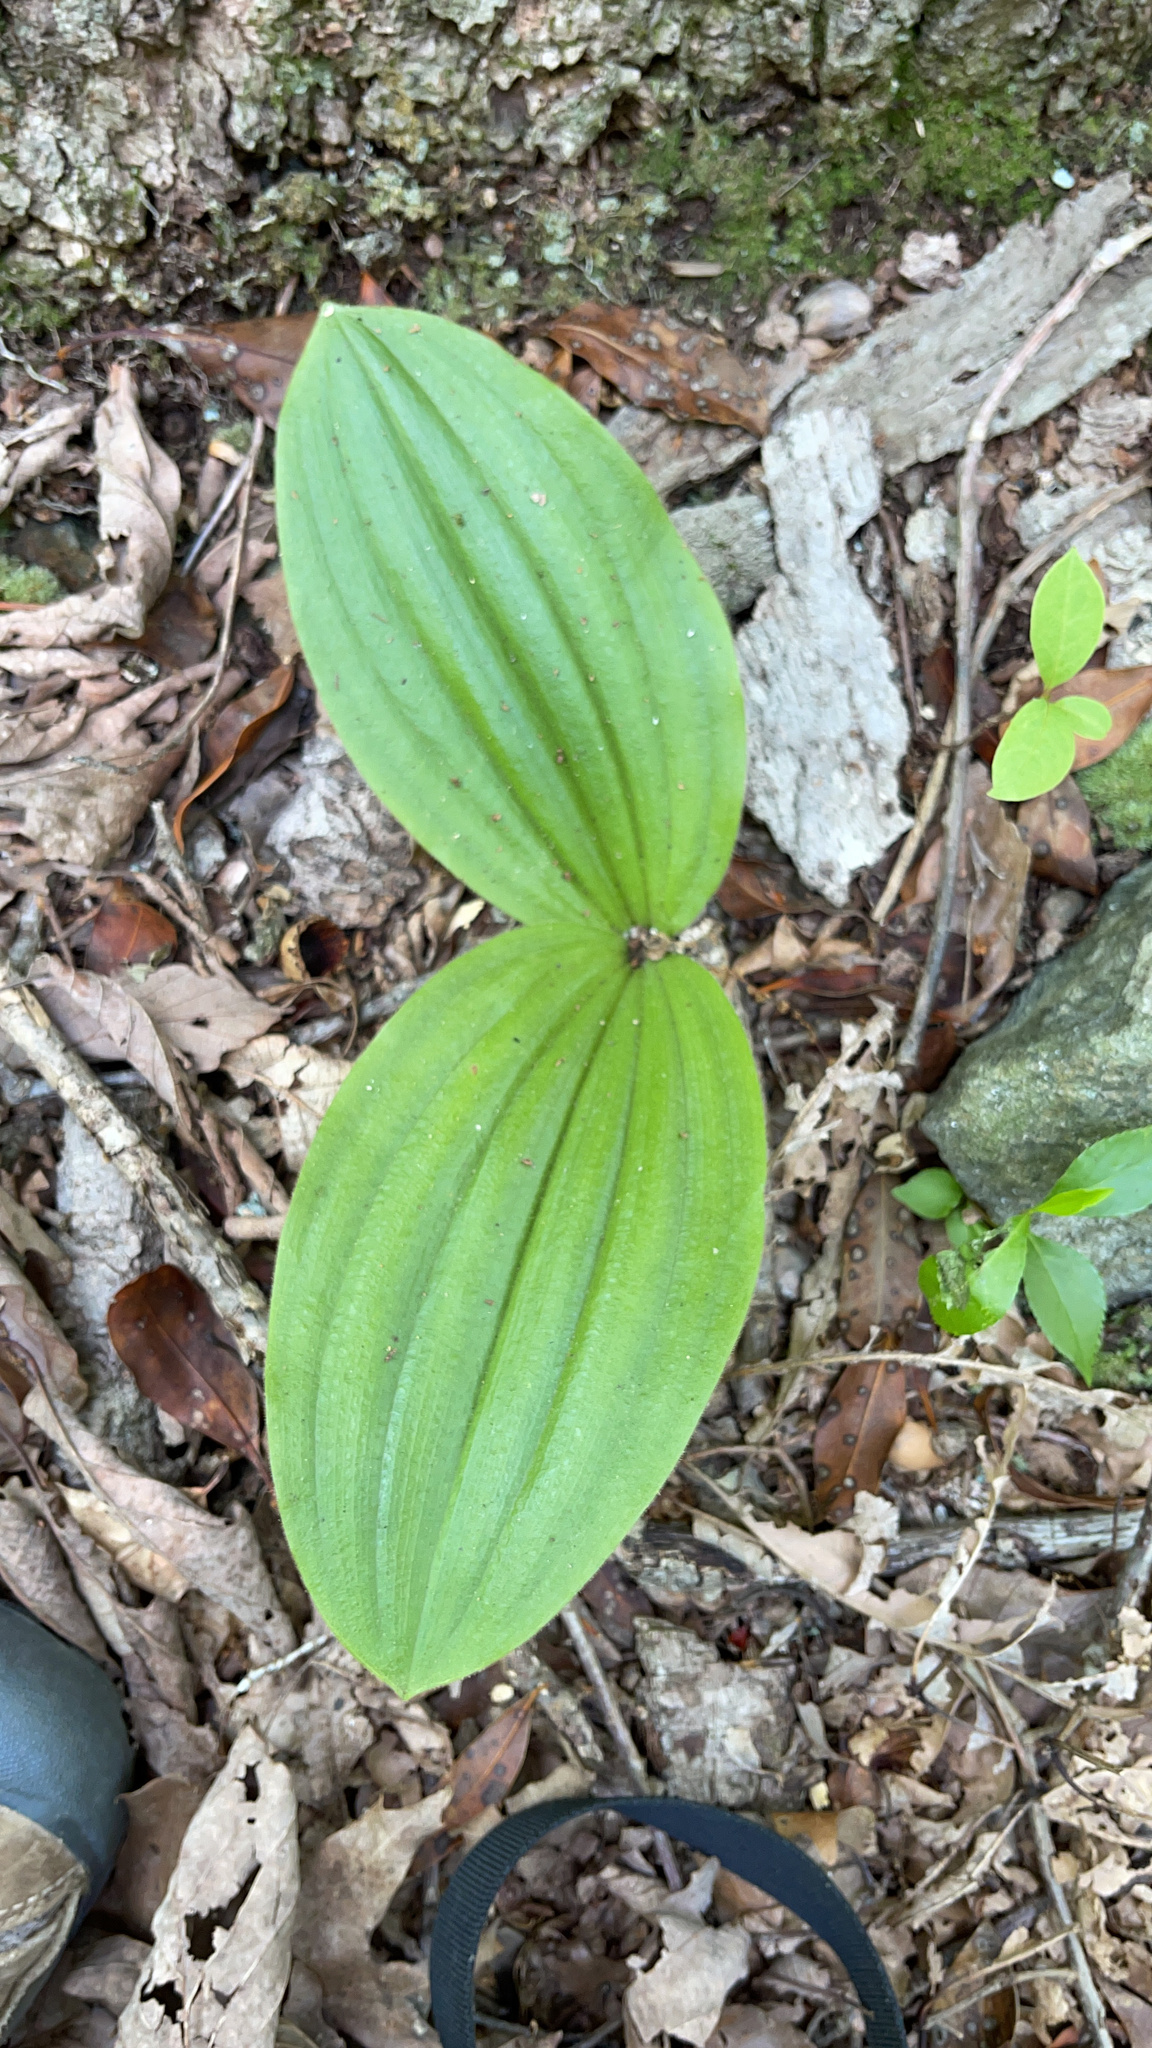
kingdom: Plantae
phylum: Tracheophyta
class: Liliopsida
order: Asparagales
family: Orchidaceae
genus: Cypripedium
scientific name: Cypripedium acaule
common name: Pink lady's-slipper
